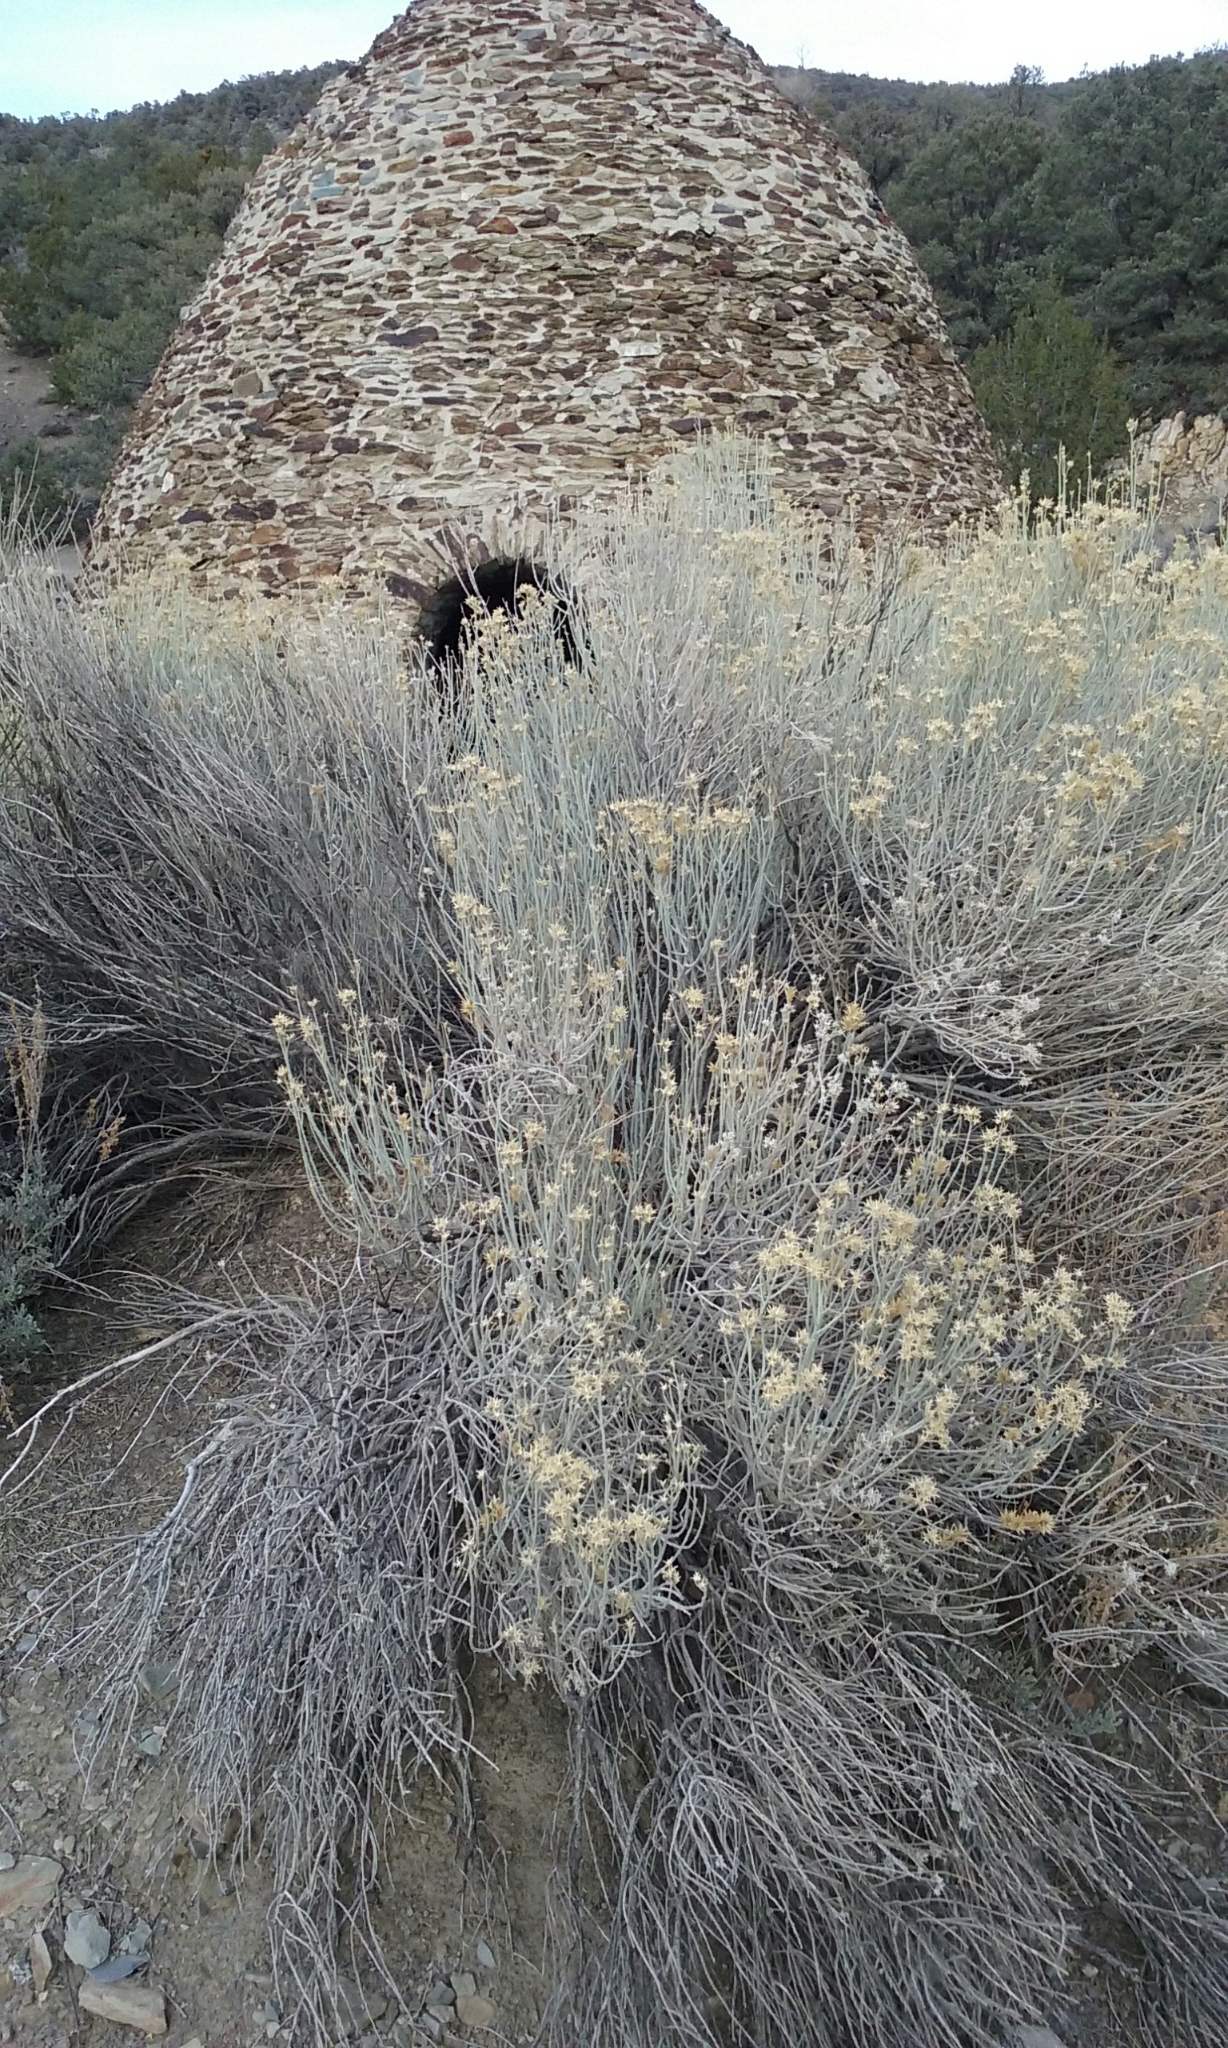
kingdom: Plantae
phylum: Tracheophyta
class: Magnoliopsida
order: Asterales
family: Asteraceae
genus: Ericameria
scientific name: Ericameria nauseosa
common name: Rubber rabbitbrush
